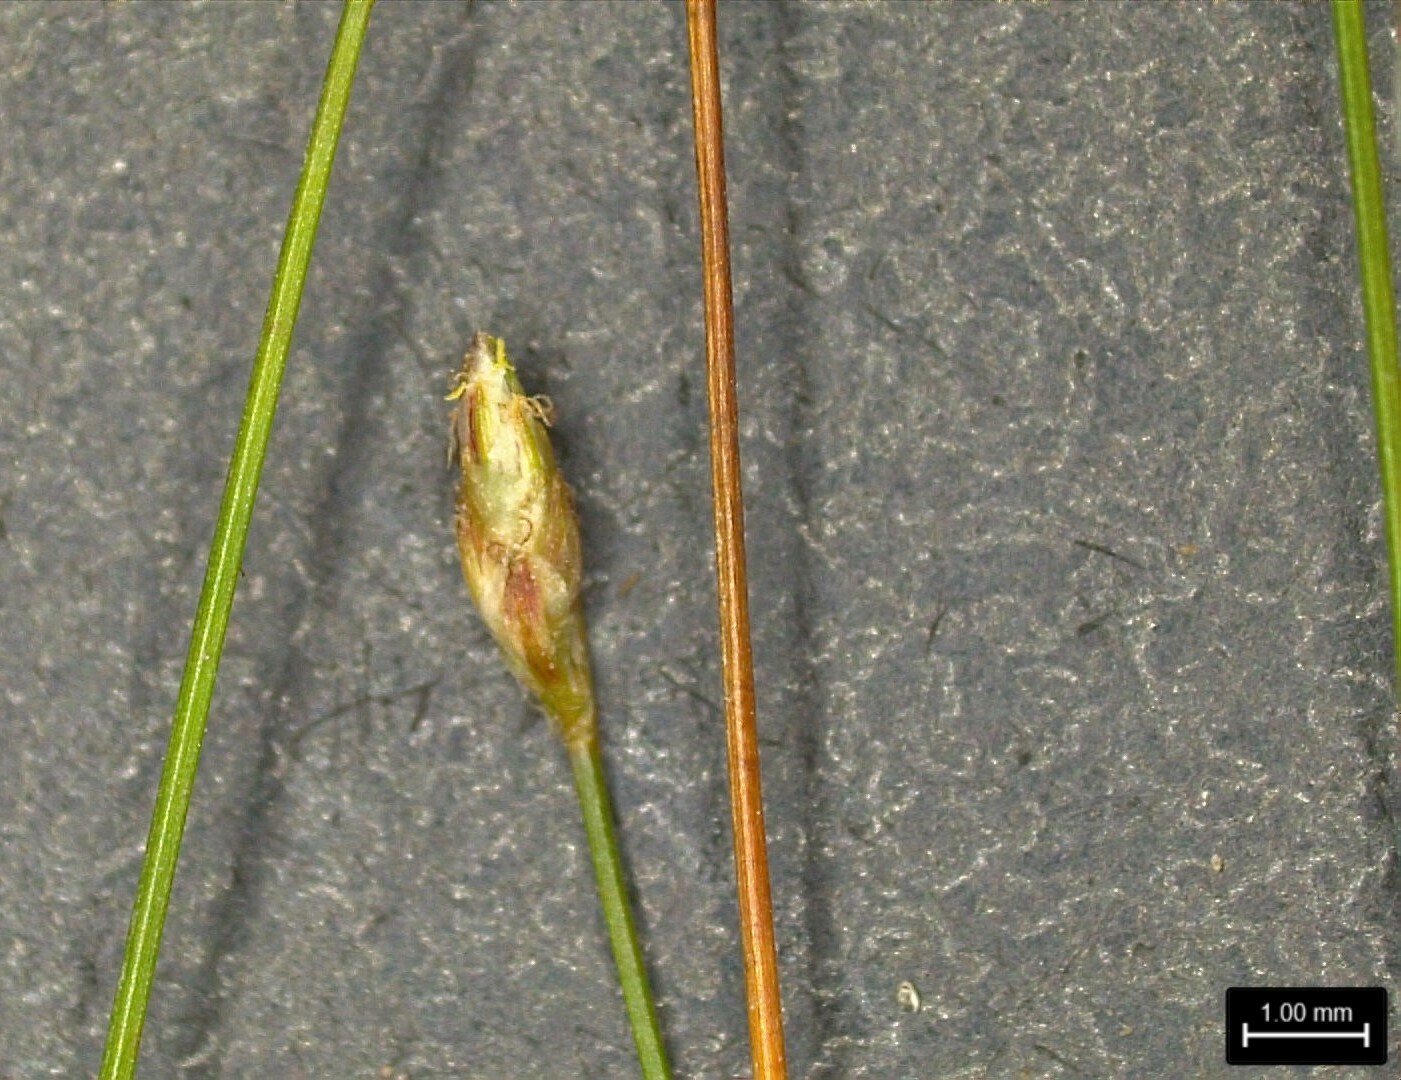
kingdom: Plantae
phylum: Tracheophyta
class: Liliopsida
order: Poales
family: Cyperaceae
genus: Eleocharis
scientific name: Eleocharis brittonii
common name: Britton's spike-rush
